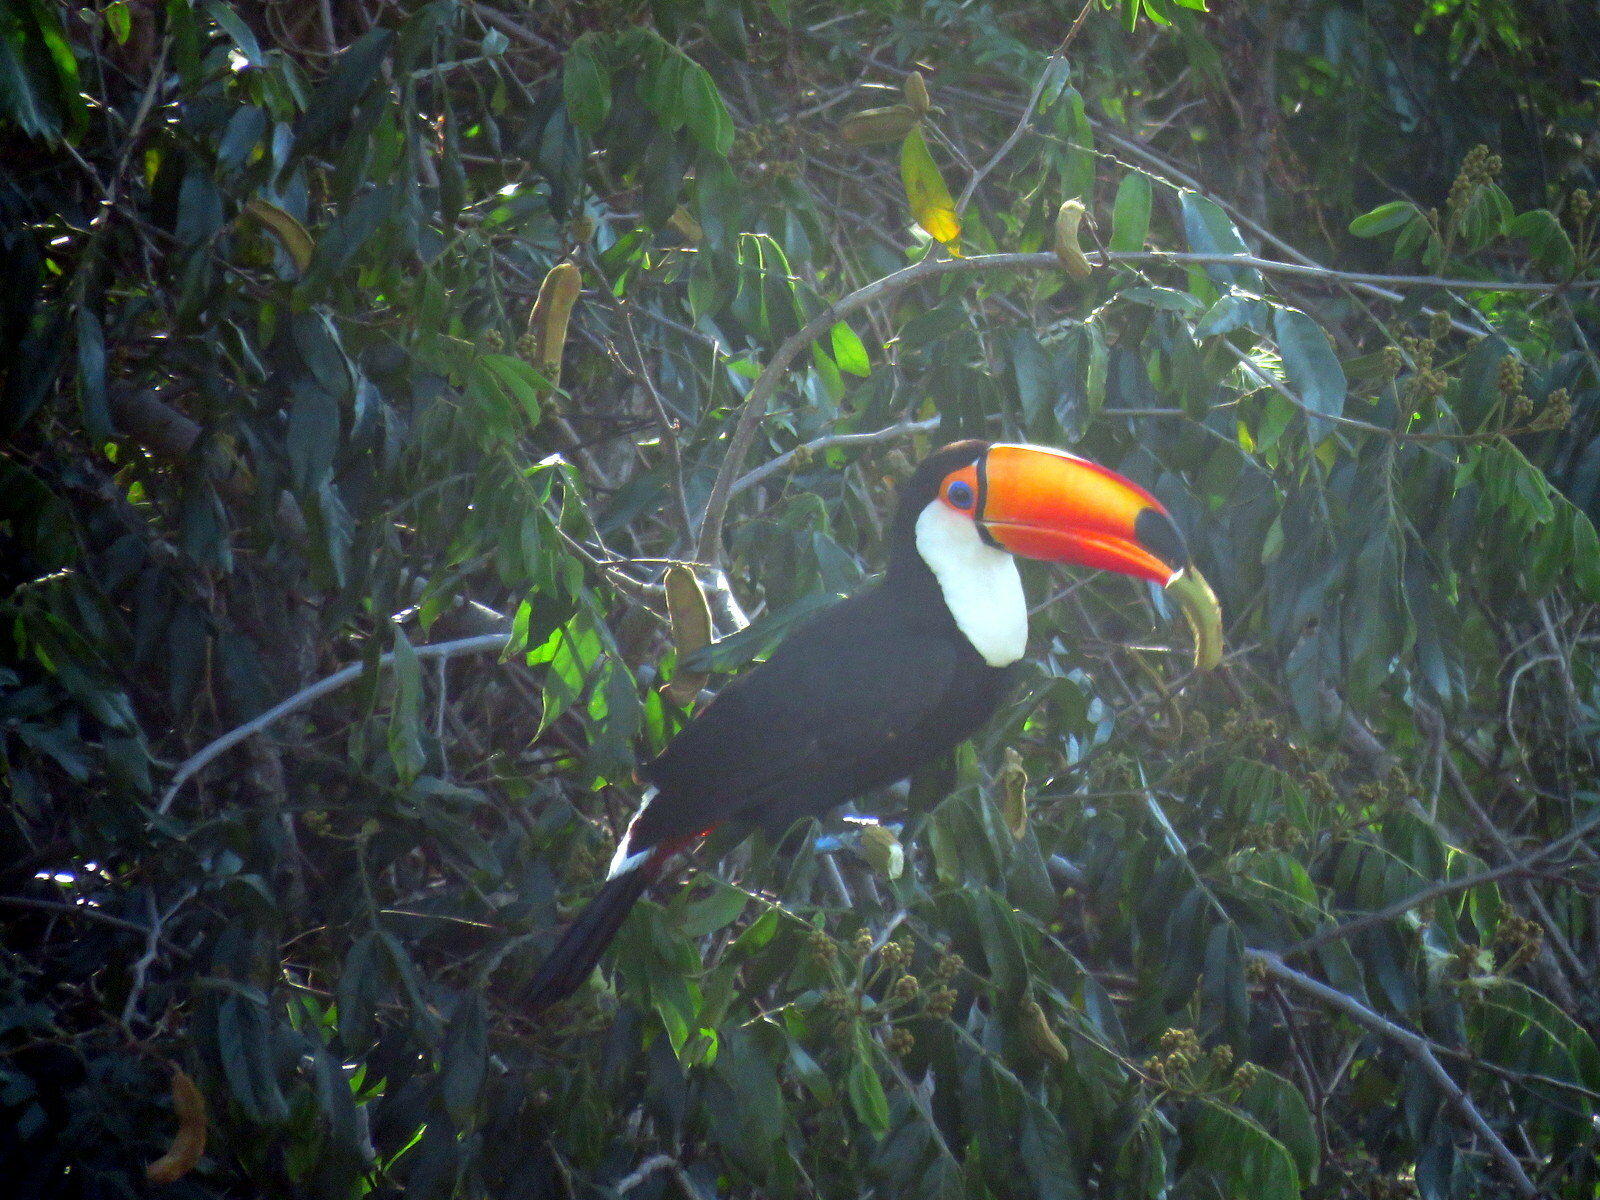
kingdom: Animalia
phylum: Chordata
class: Aves
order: Piciformes
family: Ramphastidae
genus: Ramphastos
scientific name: Ramphastos toco
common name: Toco toucan
